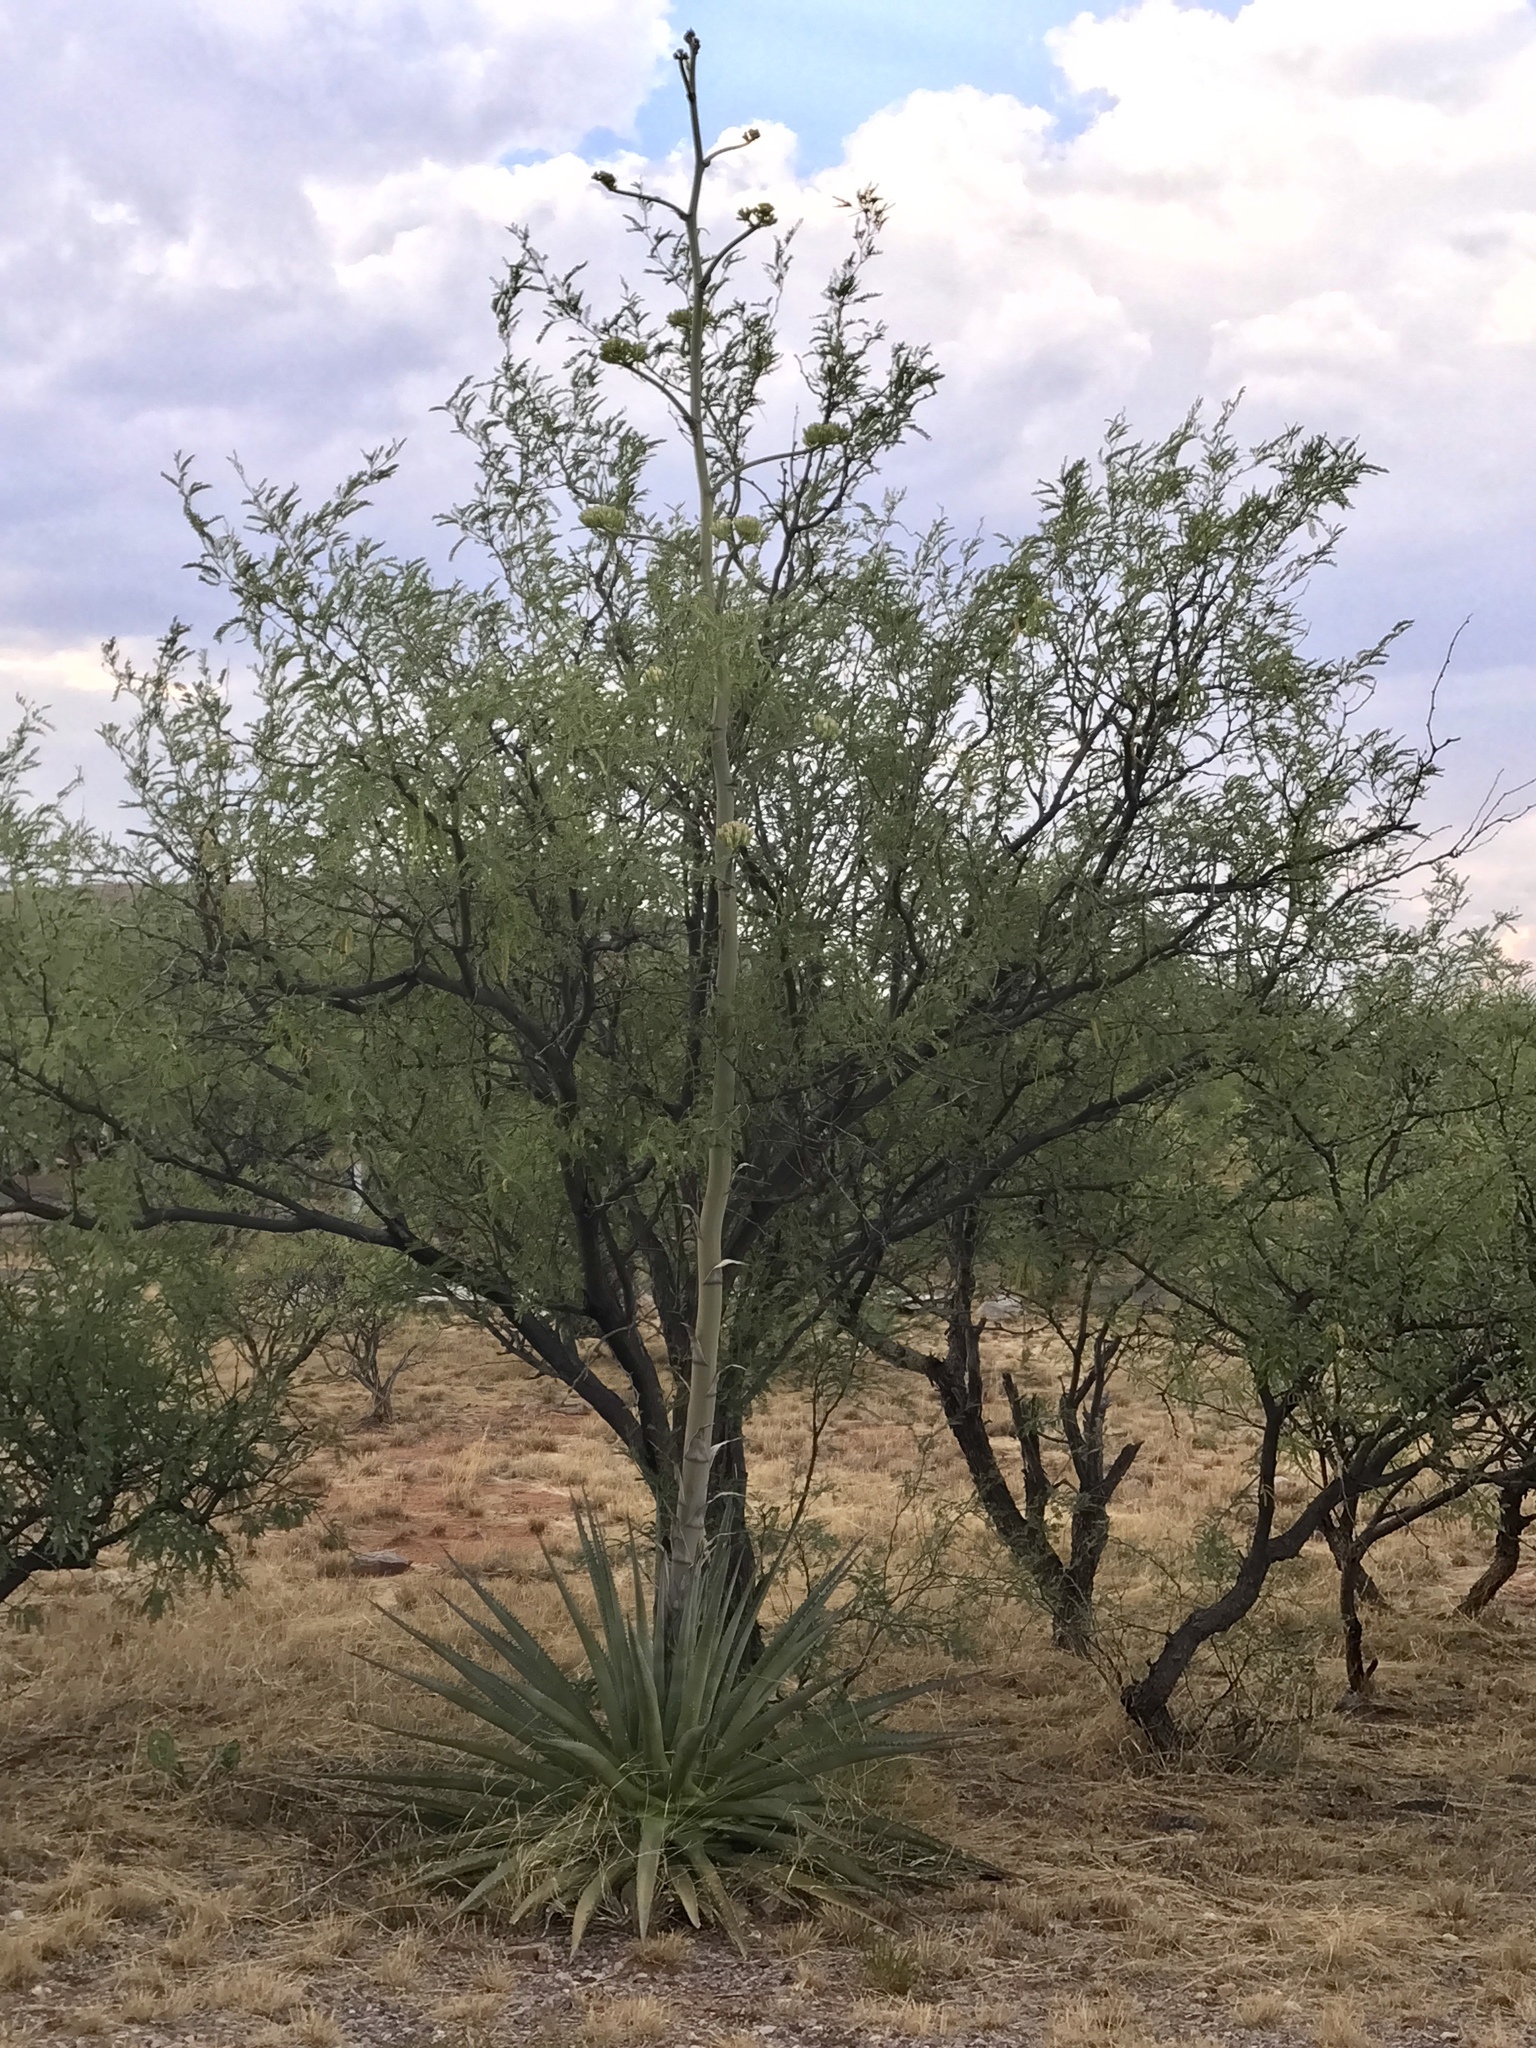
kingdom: Plantae
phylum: Tracheophyta
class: Liliopsida
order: Asparagales
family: Asparagaceae
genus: Agave
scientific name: Agave palmeri
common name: Palmer agave
